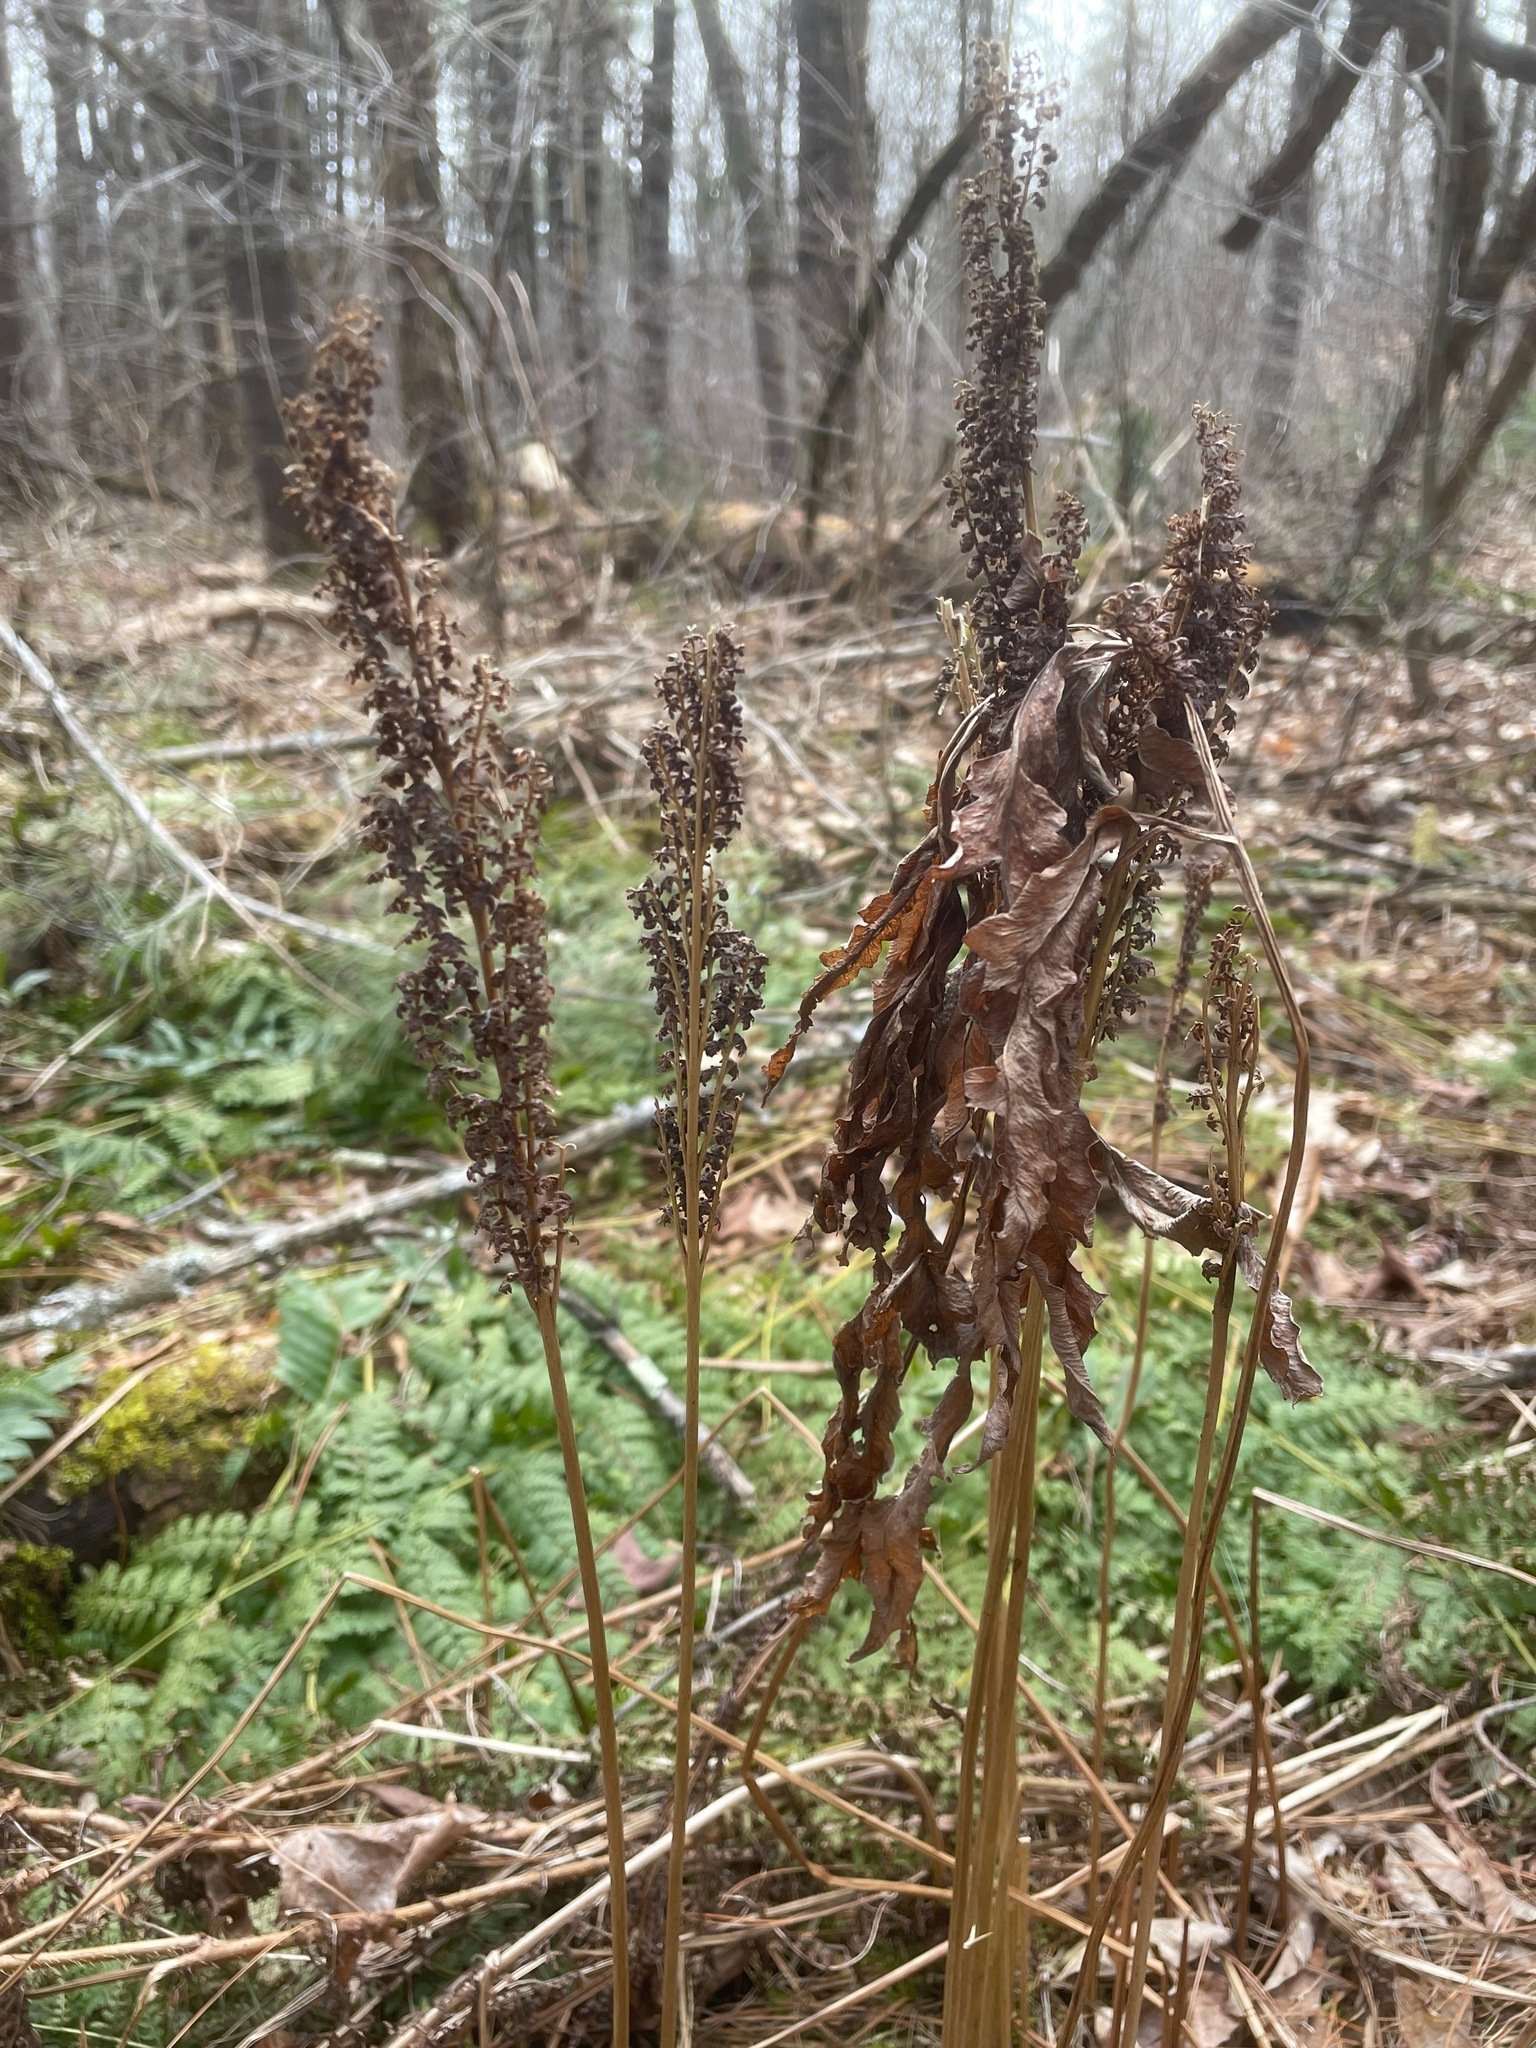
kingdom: Plantae
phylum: Tracheophyta
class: Polypodiopsida
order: Polypodiales
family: Onocleaceae
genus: Onoclea
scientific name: Onoclea sensibilis
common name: Sensitive fern
